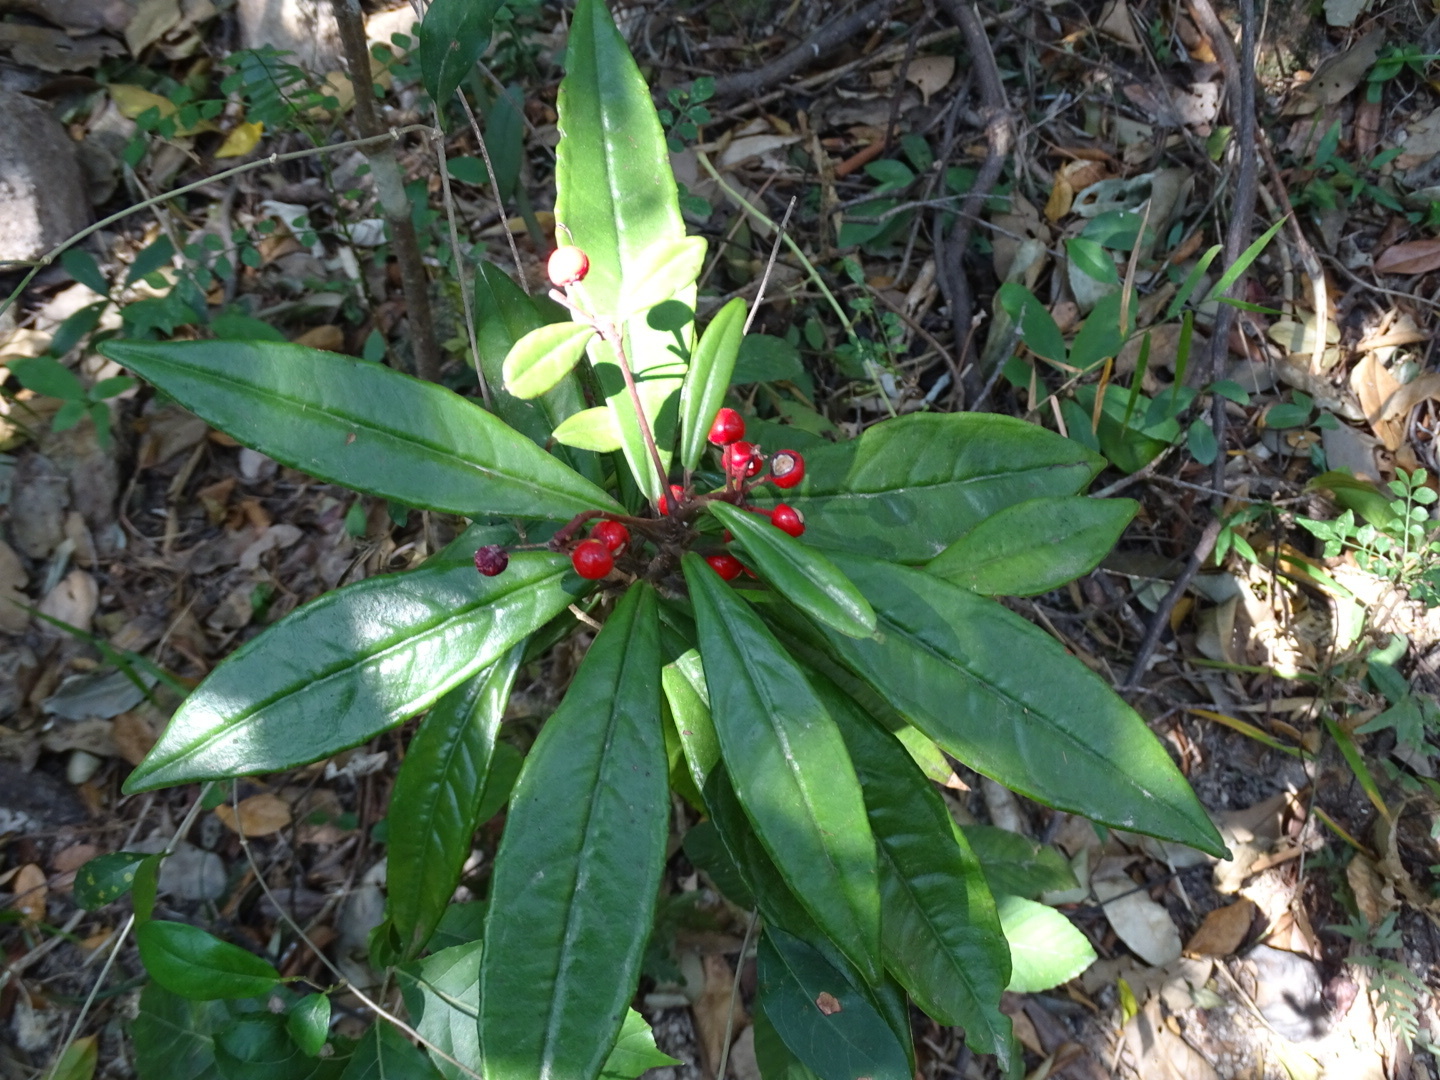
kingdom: Plantae
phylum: Tracheophyta
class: Magnoliopsida
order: Ericales
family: Primulaceae
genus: Ardisia
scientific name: Ardisia lindleyana
